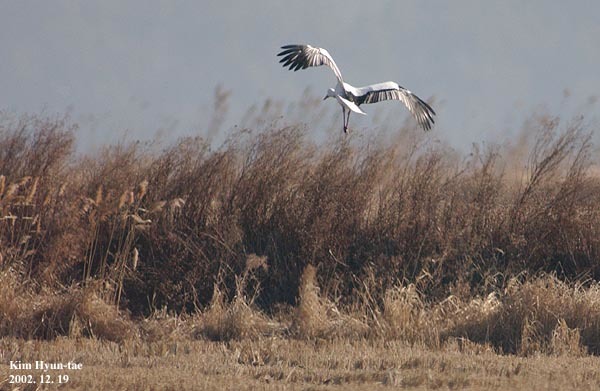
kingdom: Animalia
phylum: Chordata
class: Aves
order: Ciconiiformes
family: Ciconiidae
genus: Ciconia
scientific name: Ciconia boyciana
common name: Oriental stork
